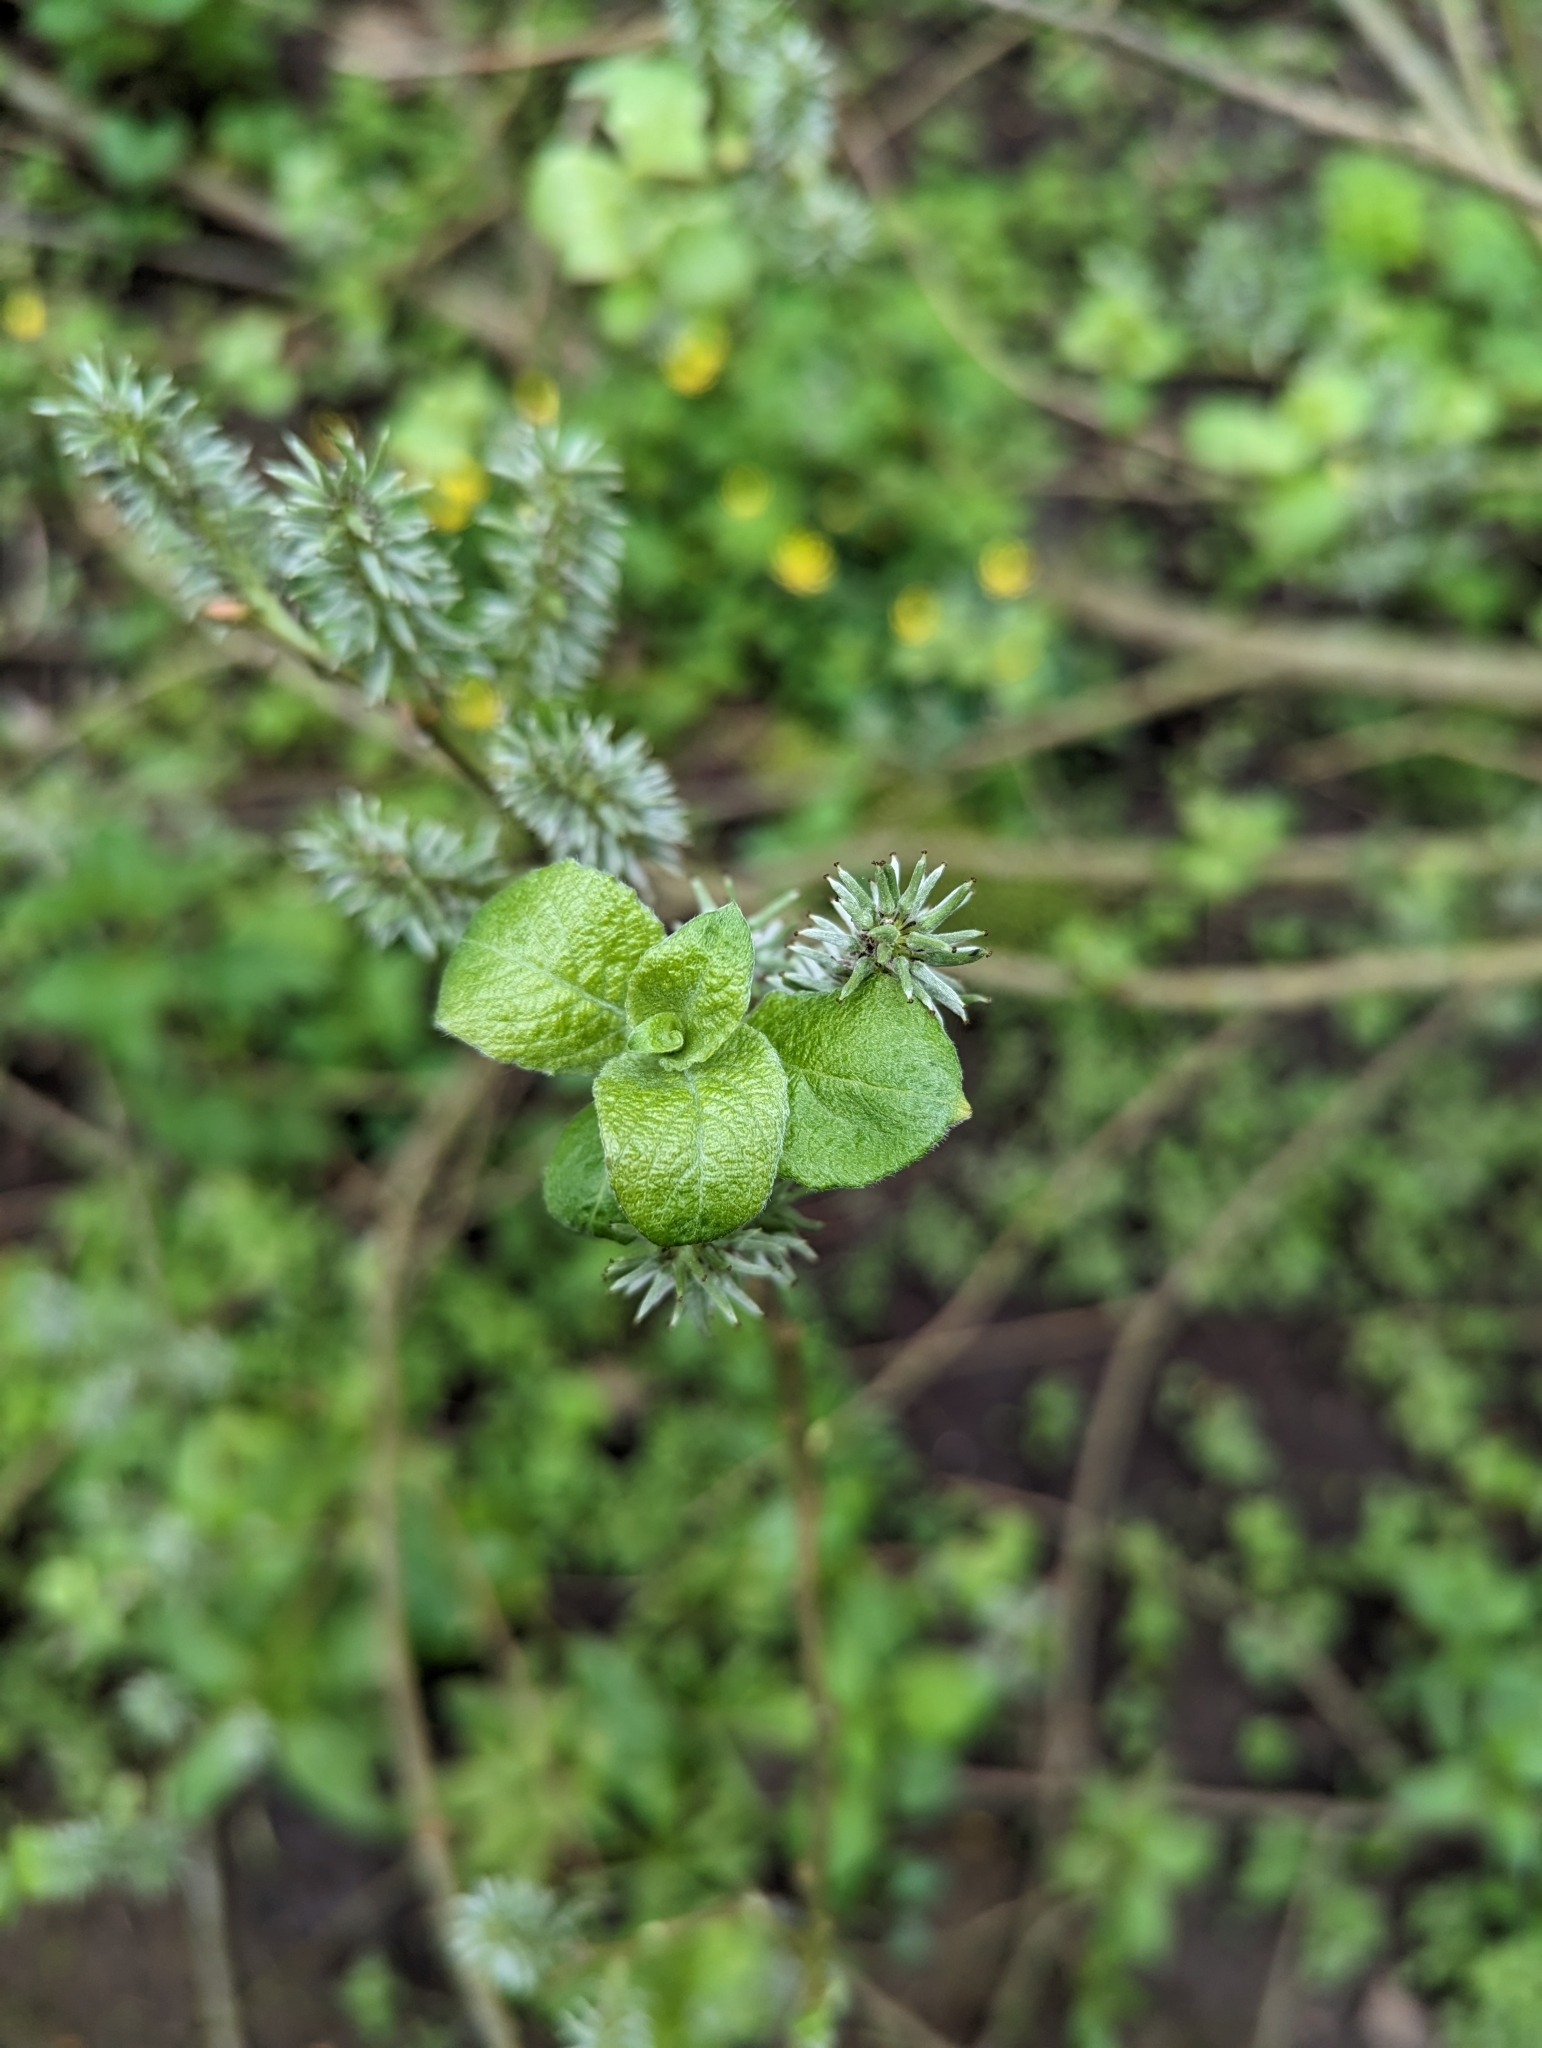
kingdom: Plantae
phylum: Tracheophyta
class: Magnoliopsida
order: Malpighiales
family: Salicaceae
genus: Salix
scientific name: Salix caprea
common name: Goat willow
